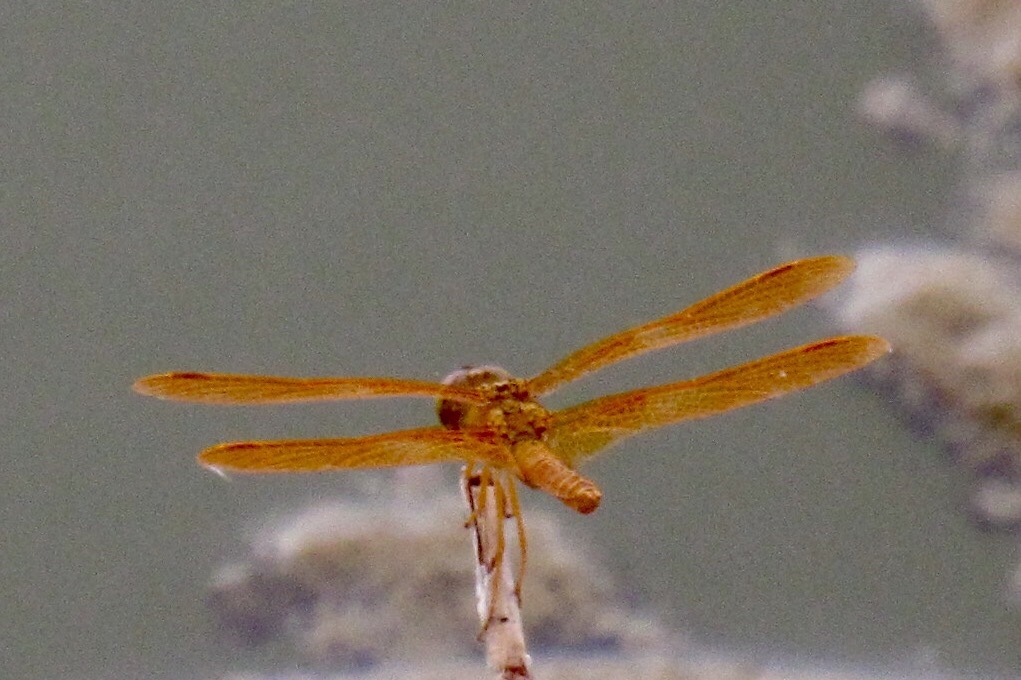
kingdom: Animalia
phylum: Arthropoda
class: Insecta
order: Odonata
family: Libellulidae
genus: Perithemis
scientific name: Perithemis intensa
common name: Mexican amberwing
